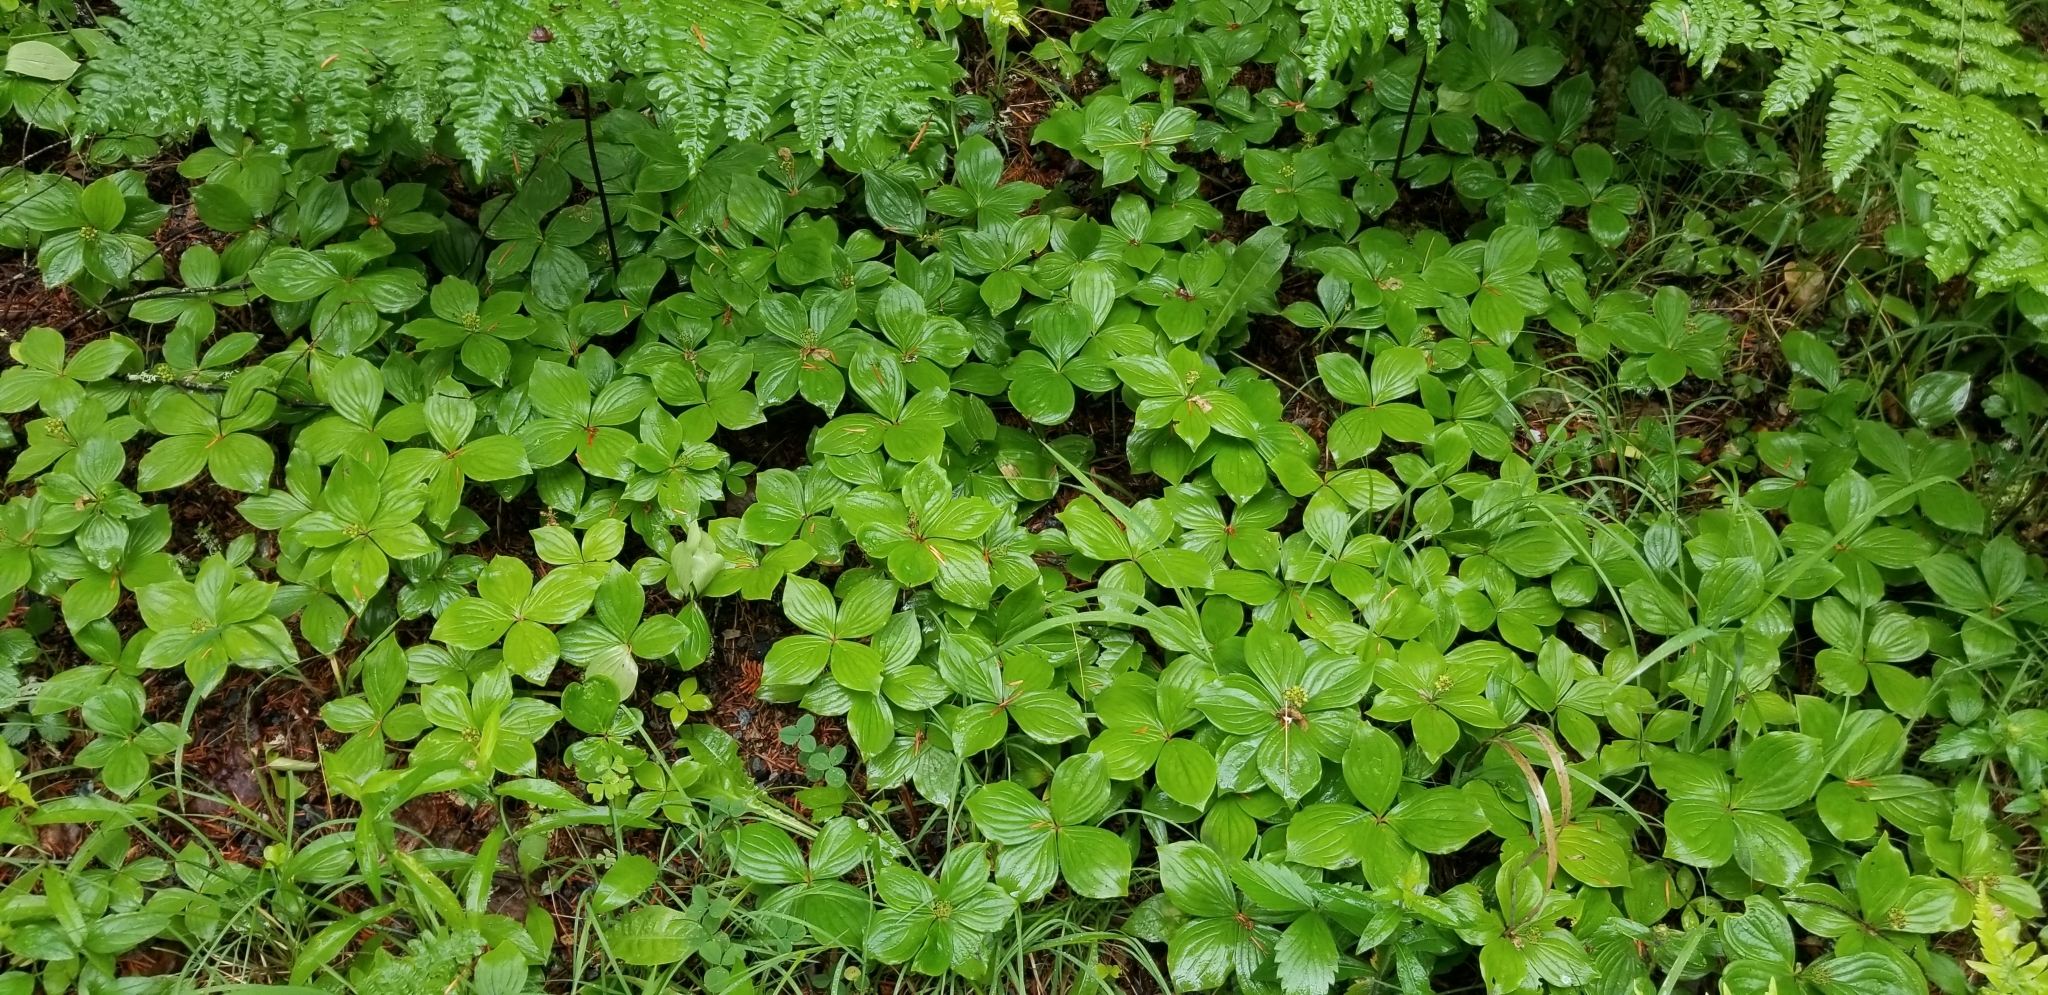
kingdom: Plantae
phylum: Tracheophyta
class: Magnoliopsida
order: Cornales
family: Cornaceae
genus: Cornus
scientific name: Cornus canadensis
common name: Creeping dogwood
